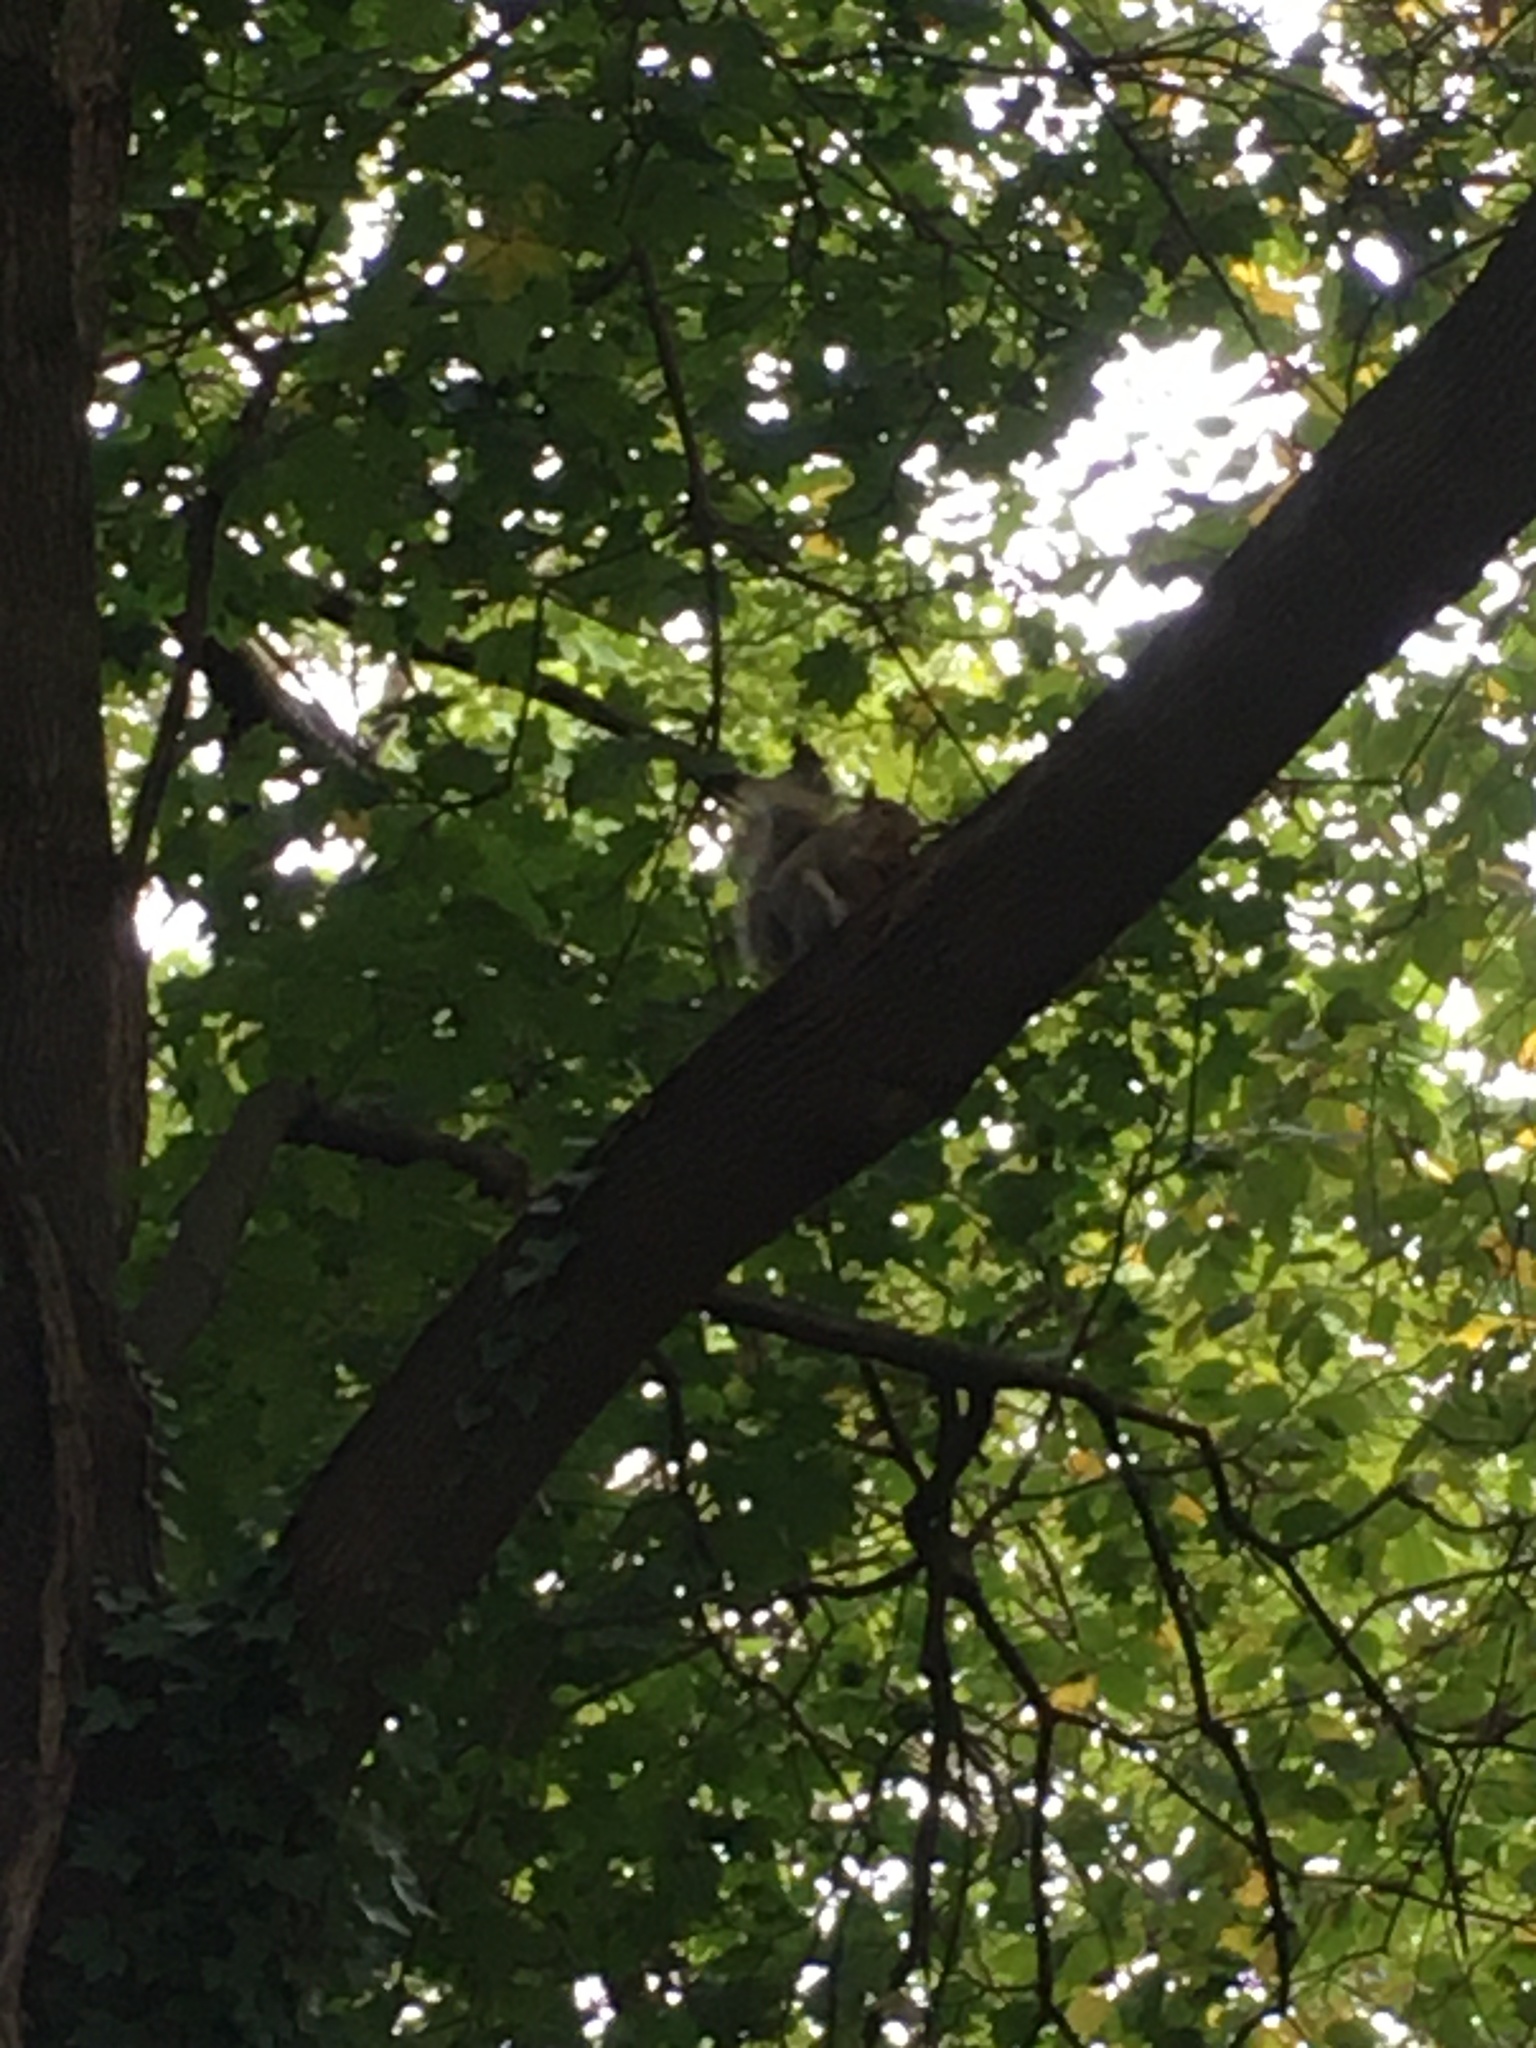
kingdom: Animalia
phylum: Chordata
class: Mammalia
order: Rodentia
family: Sciuridae
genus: Sciurus
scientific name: Sciurus carolinensis
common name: Eastern gray squirrel
